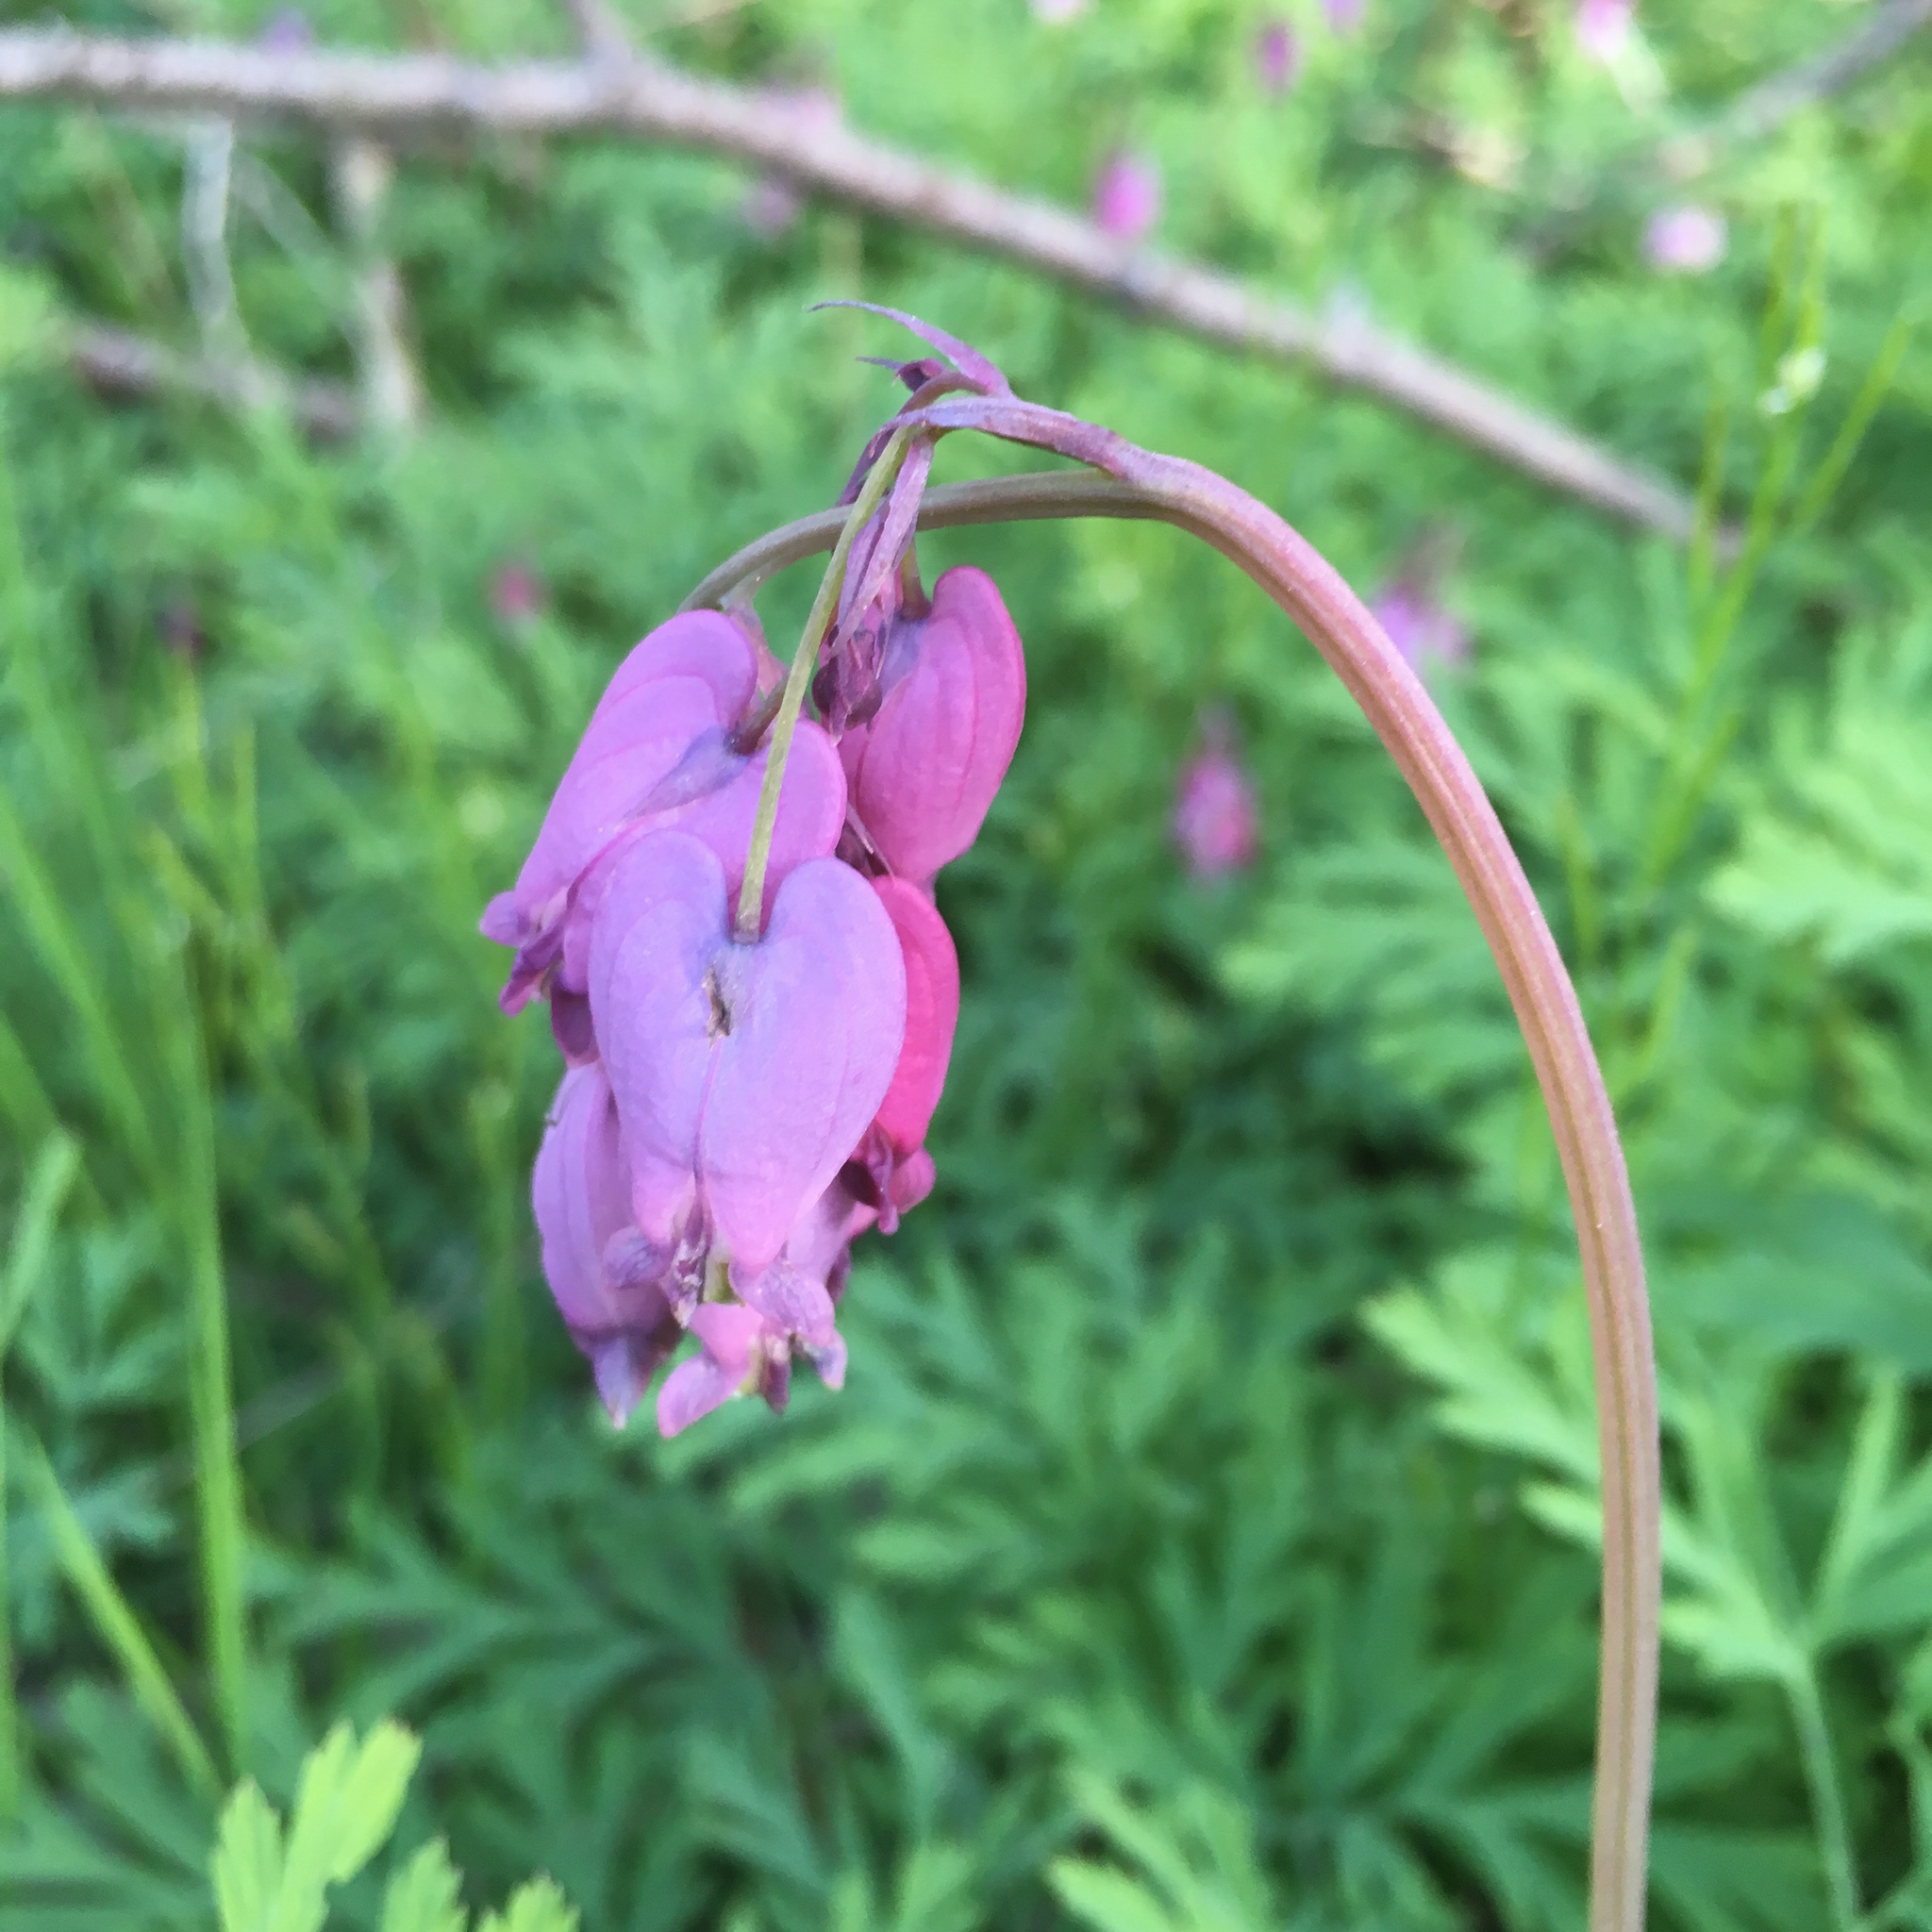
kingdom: Plantae
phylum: Tracheophyta
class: Magnoliopsida
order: Ranunculales
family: Papaveraceae
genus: Dicentra
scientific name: Dicentra formosa
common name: Bleeding-heart
